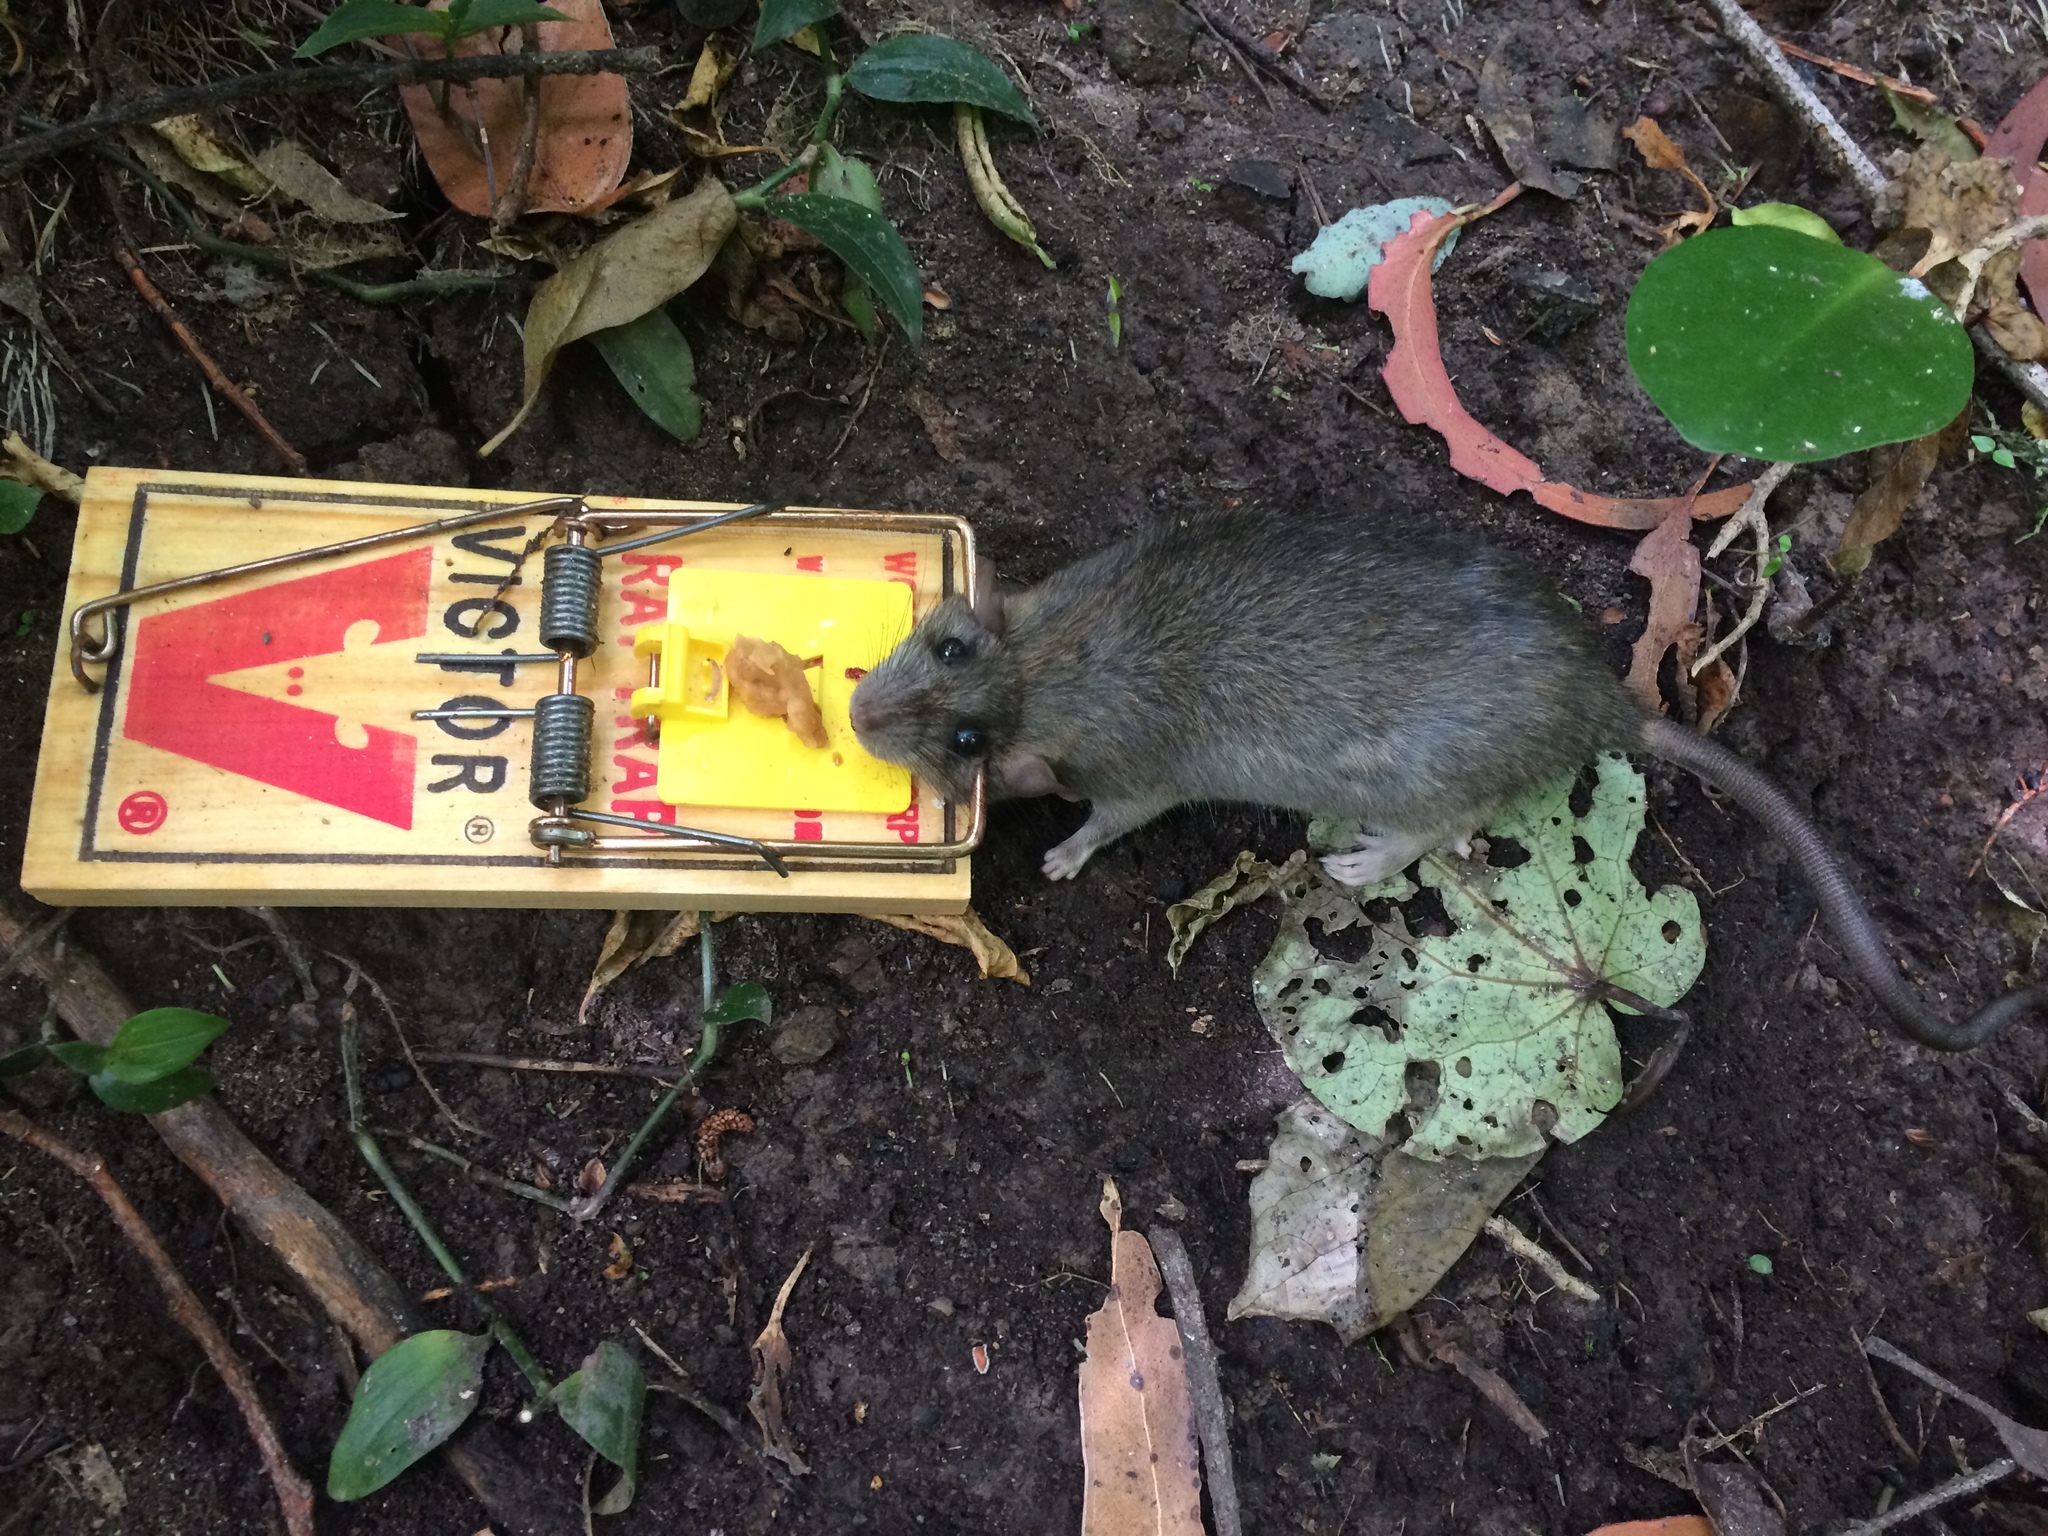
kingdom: Animalia
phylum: Chordata
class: Mammalia
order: Rodentia
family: Muridae
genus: Rattus
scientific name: Rattus rattus
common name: Black rat
